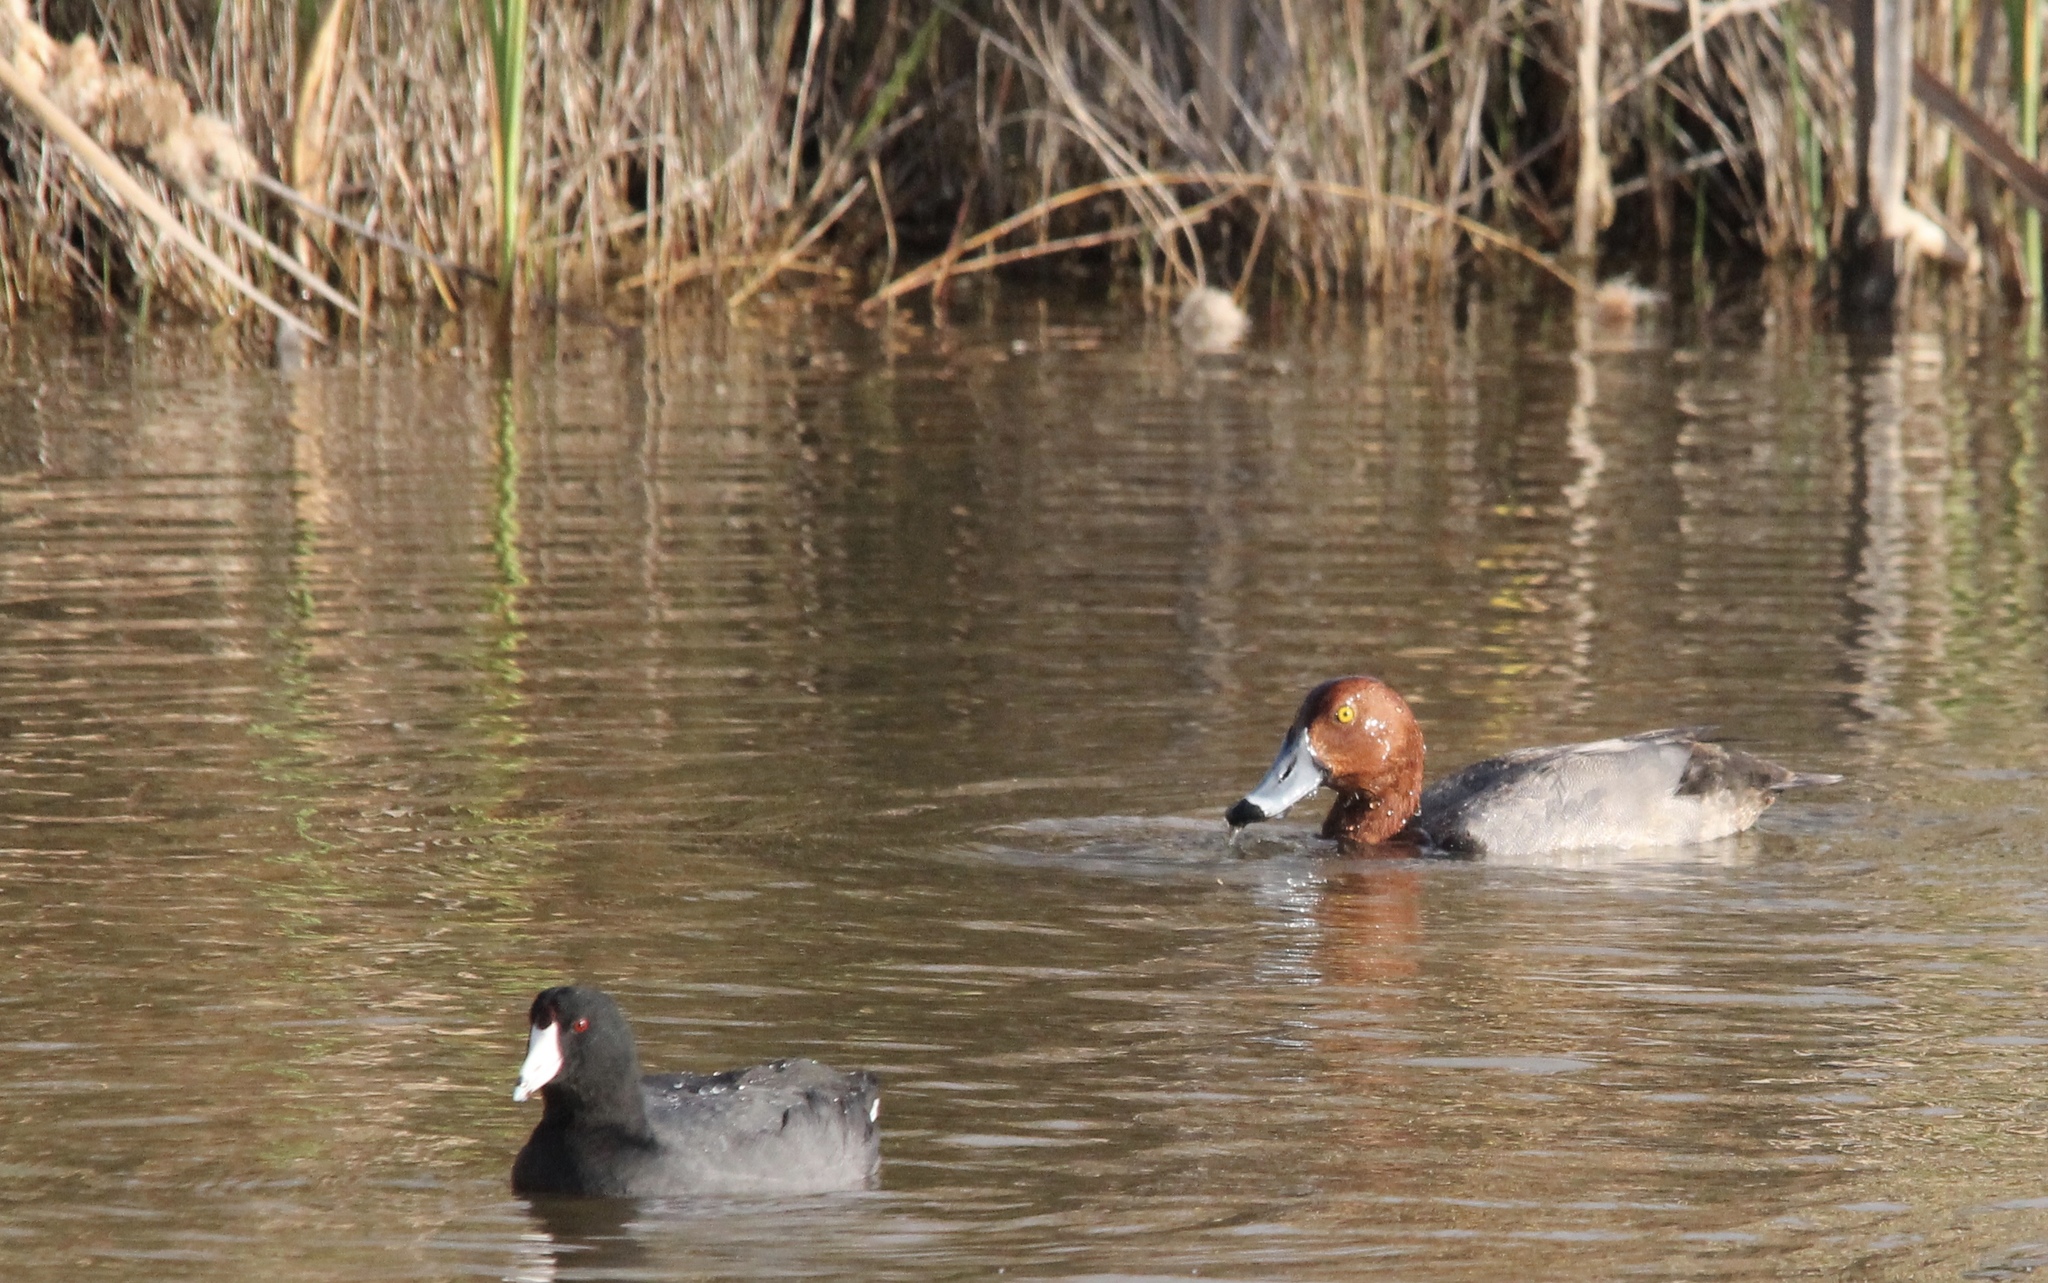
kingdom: Animalia
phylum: Chordata
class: Aves
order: Anseriformes
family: Anatidae
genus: Aythya
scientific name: Aythya americana
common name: Redhead
